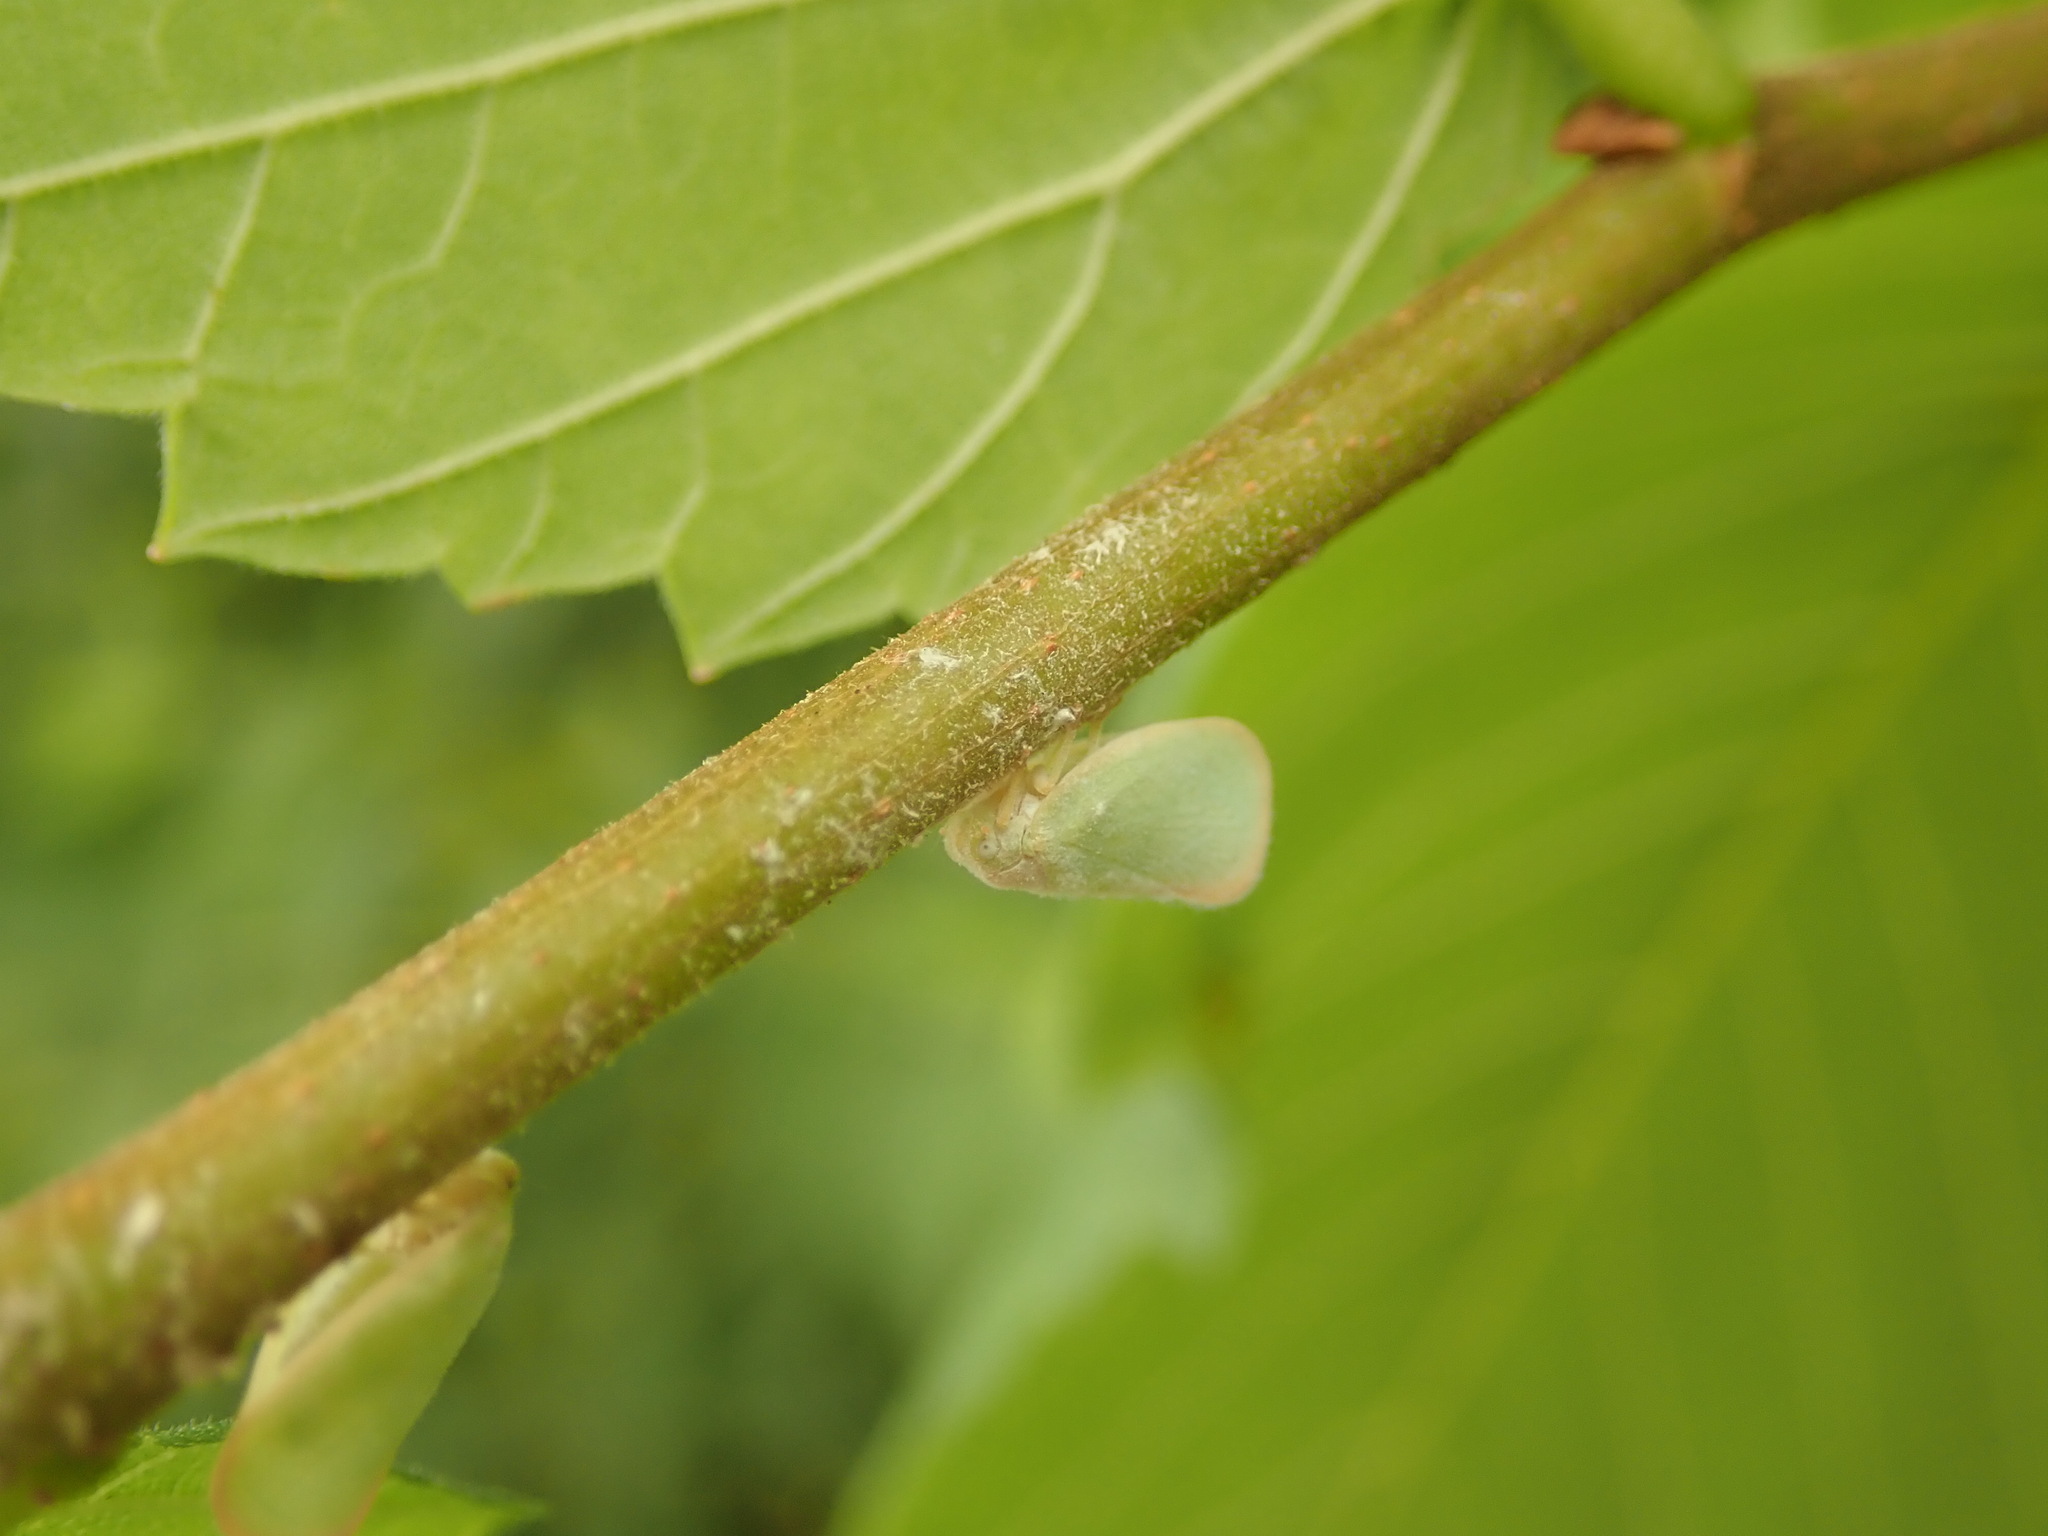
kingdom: Animalia
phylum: Arthropoda
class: Insecta
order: Hemiptera
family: Flatidae
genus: Ormenoides
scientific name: Ormenoides venusta
